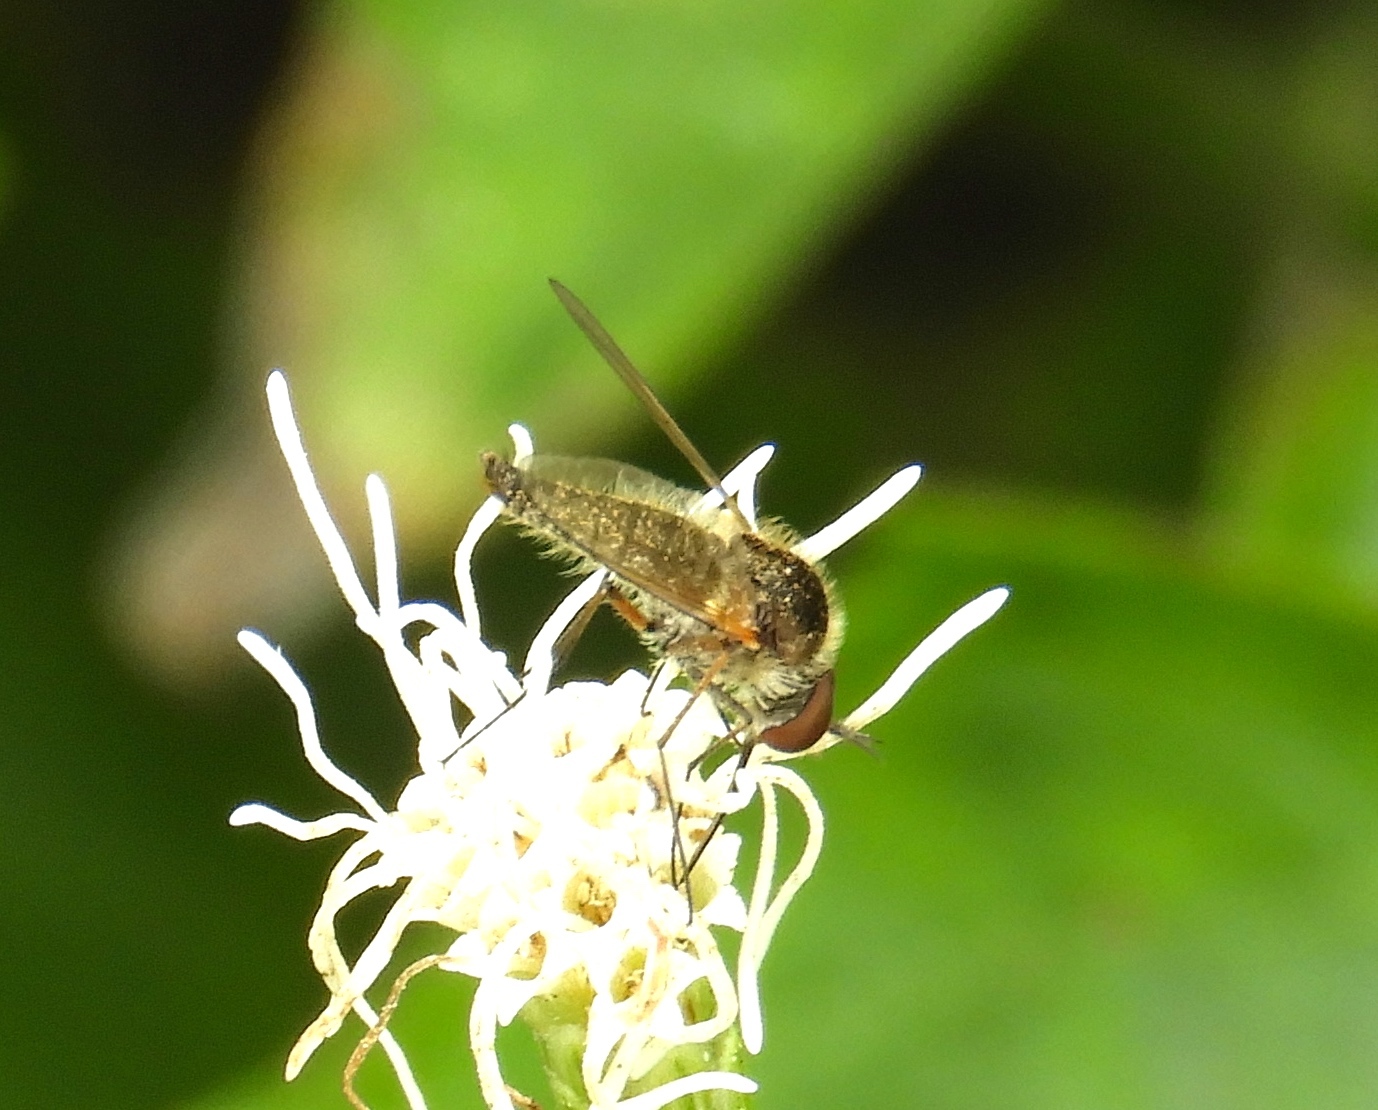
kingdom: Animalia
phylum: Arthropoda
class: Insecta
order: Diptera
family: Bombyliidae
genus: Geron
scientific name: Geron
